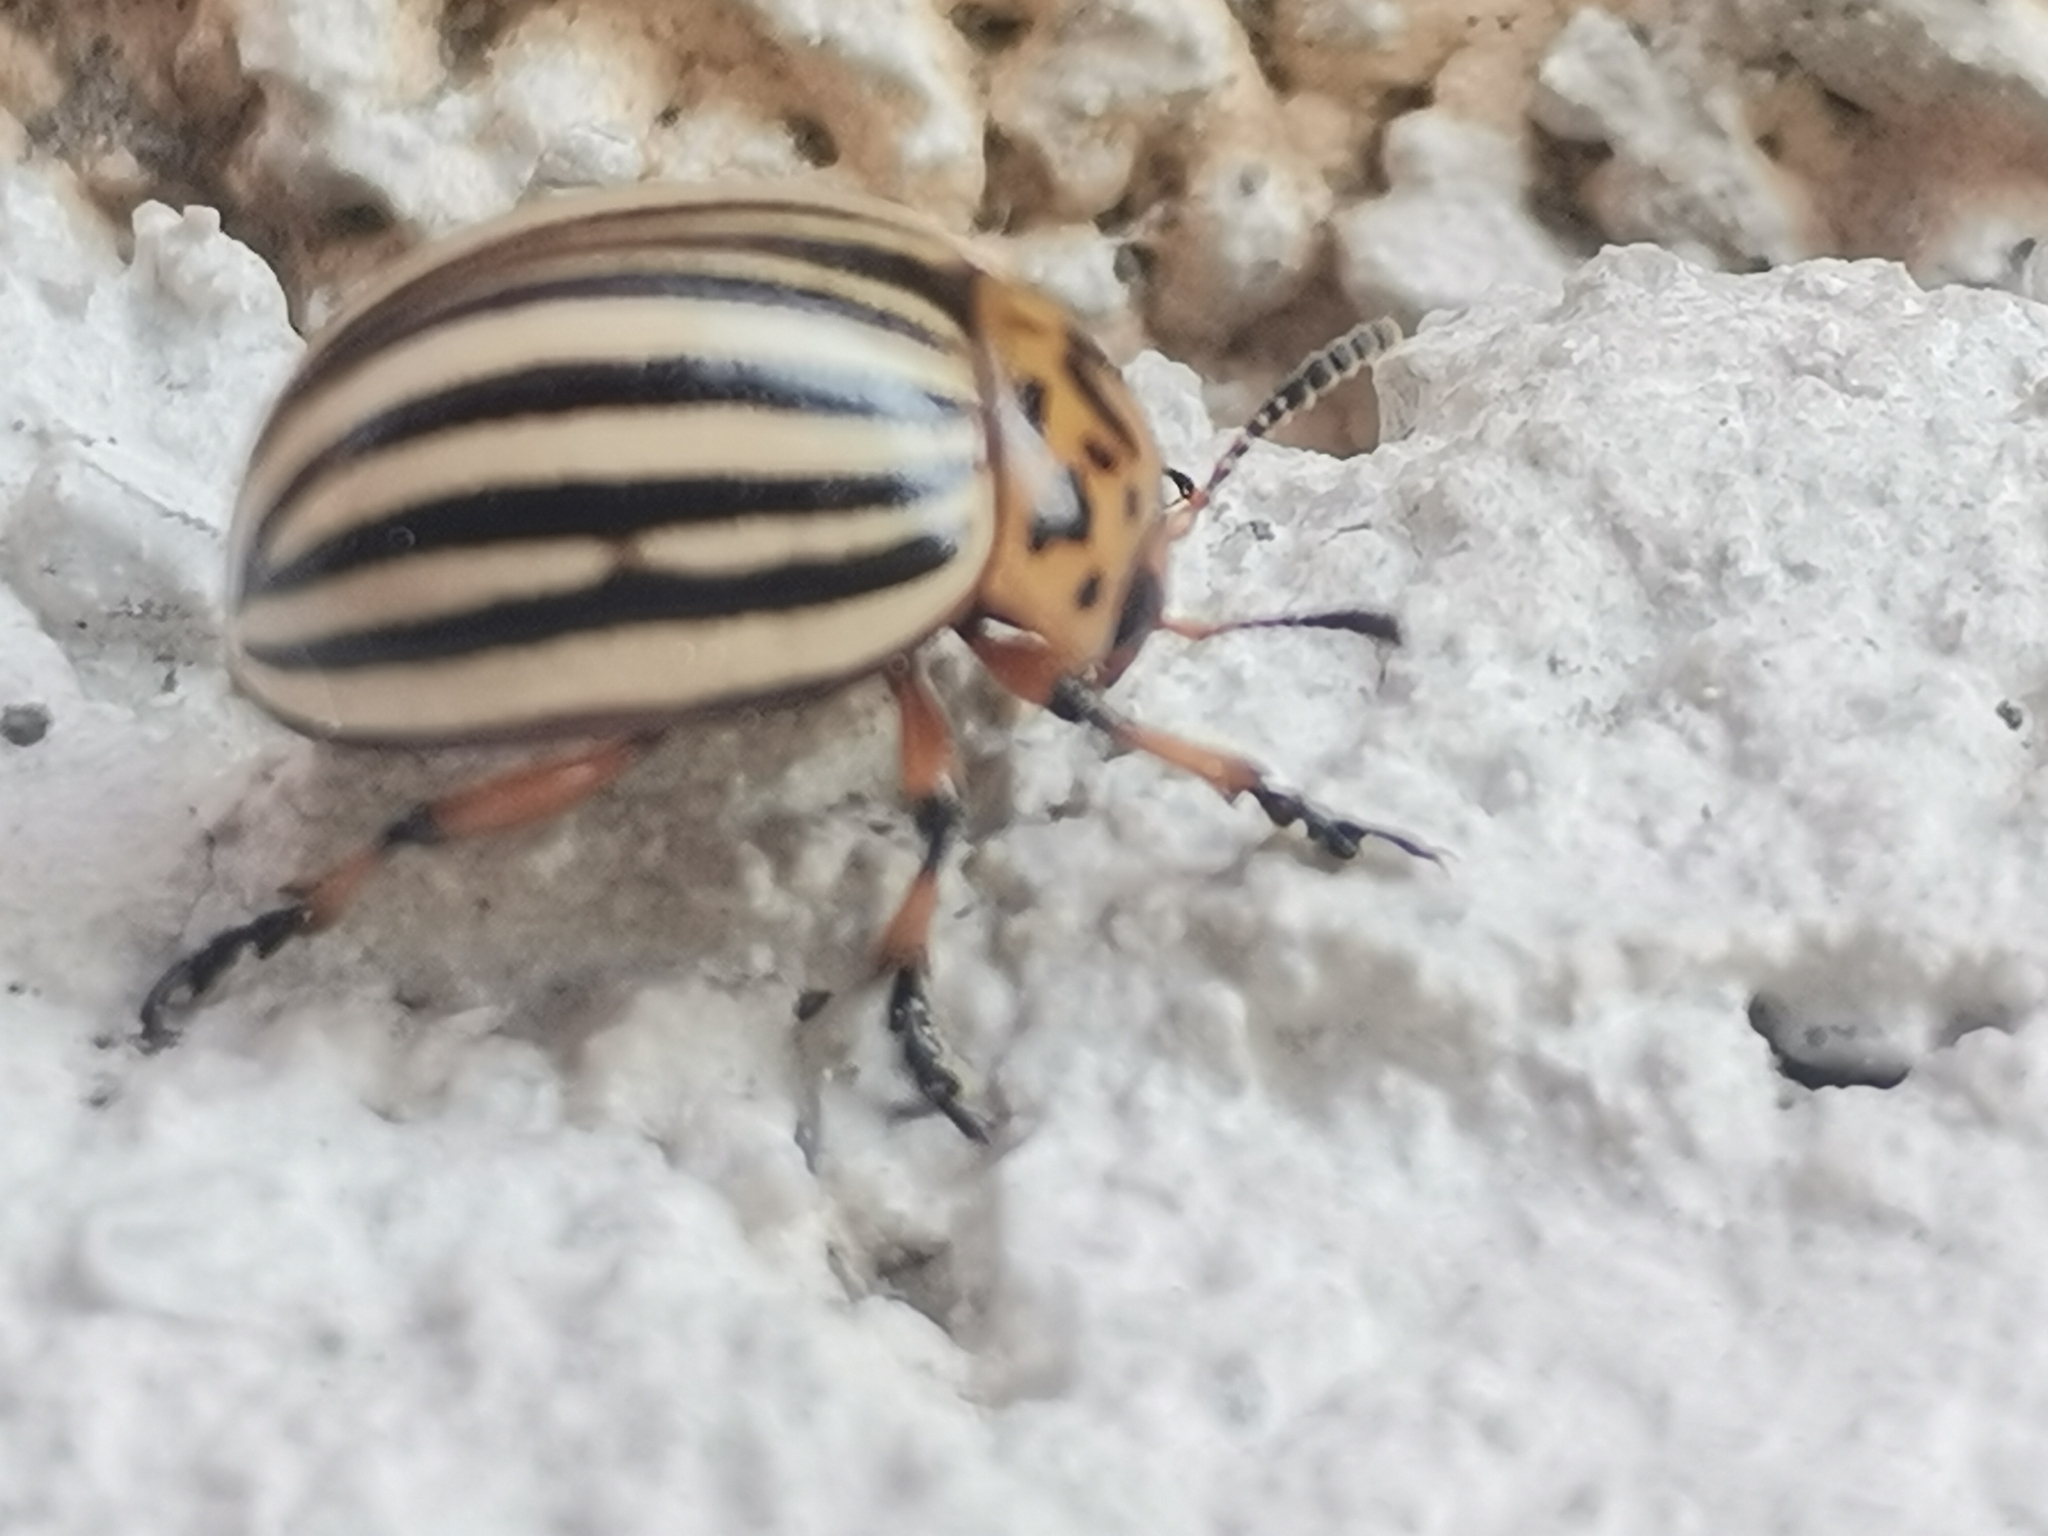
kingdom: Animalia
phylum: Arthropoda
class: Insecta
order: Coleoptera
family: Chrysomelidae
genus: Leptinotarsa
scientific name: Leptinotarsa decemlineata
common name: Colorado potato beetle
